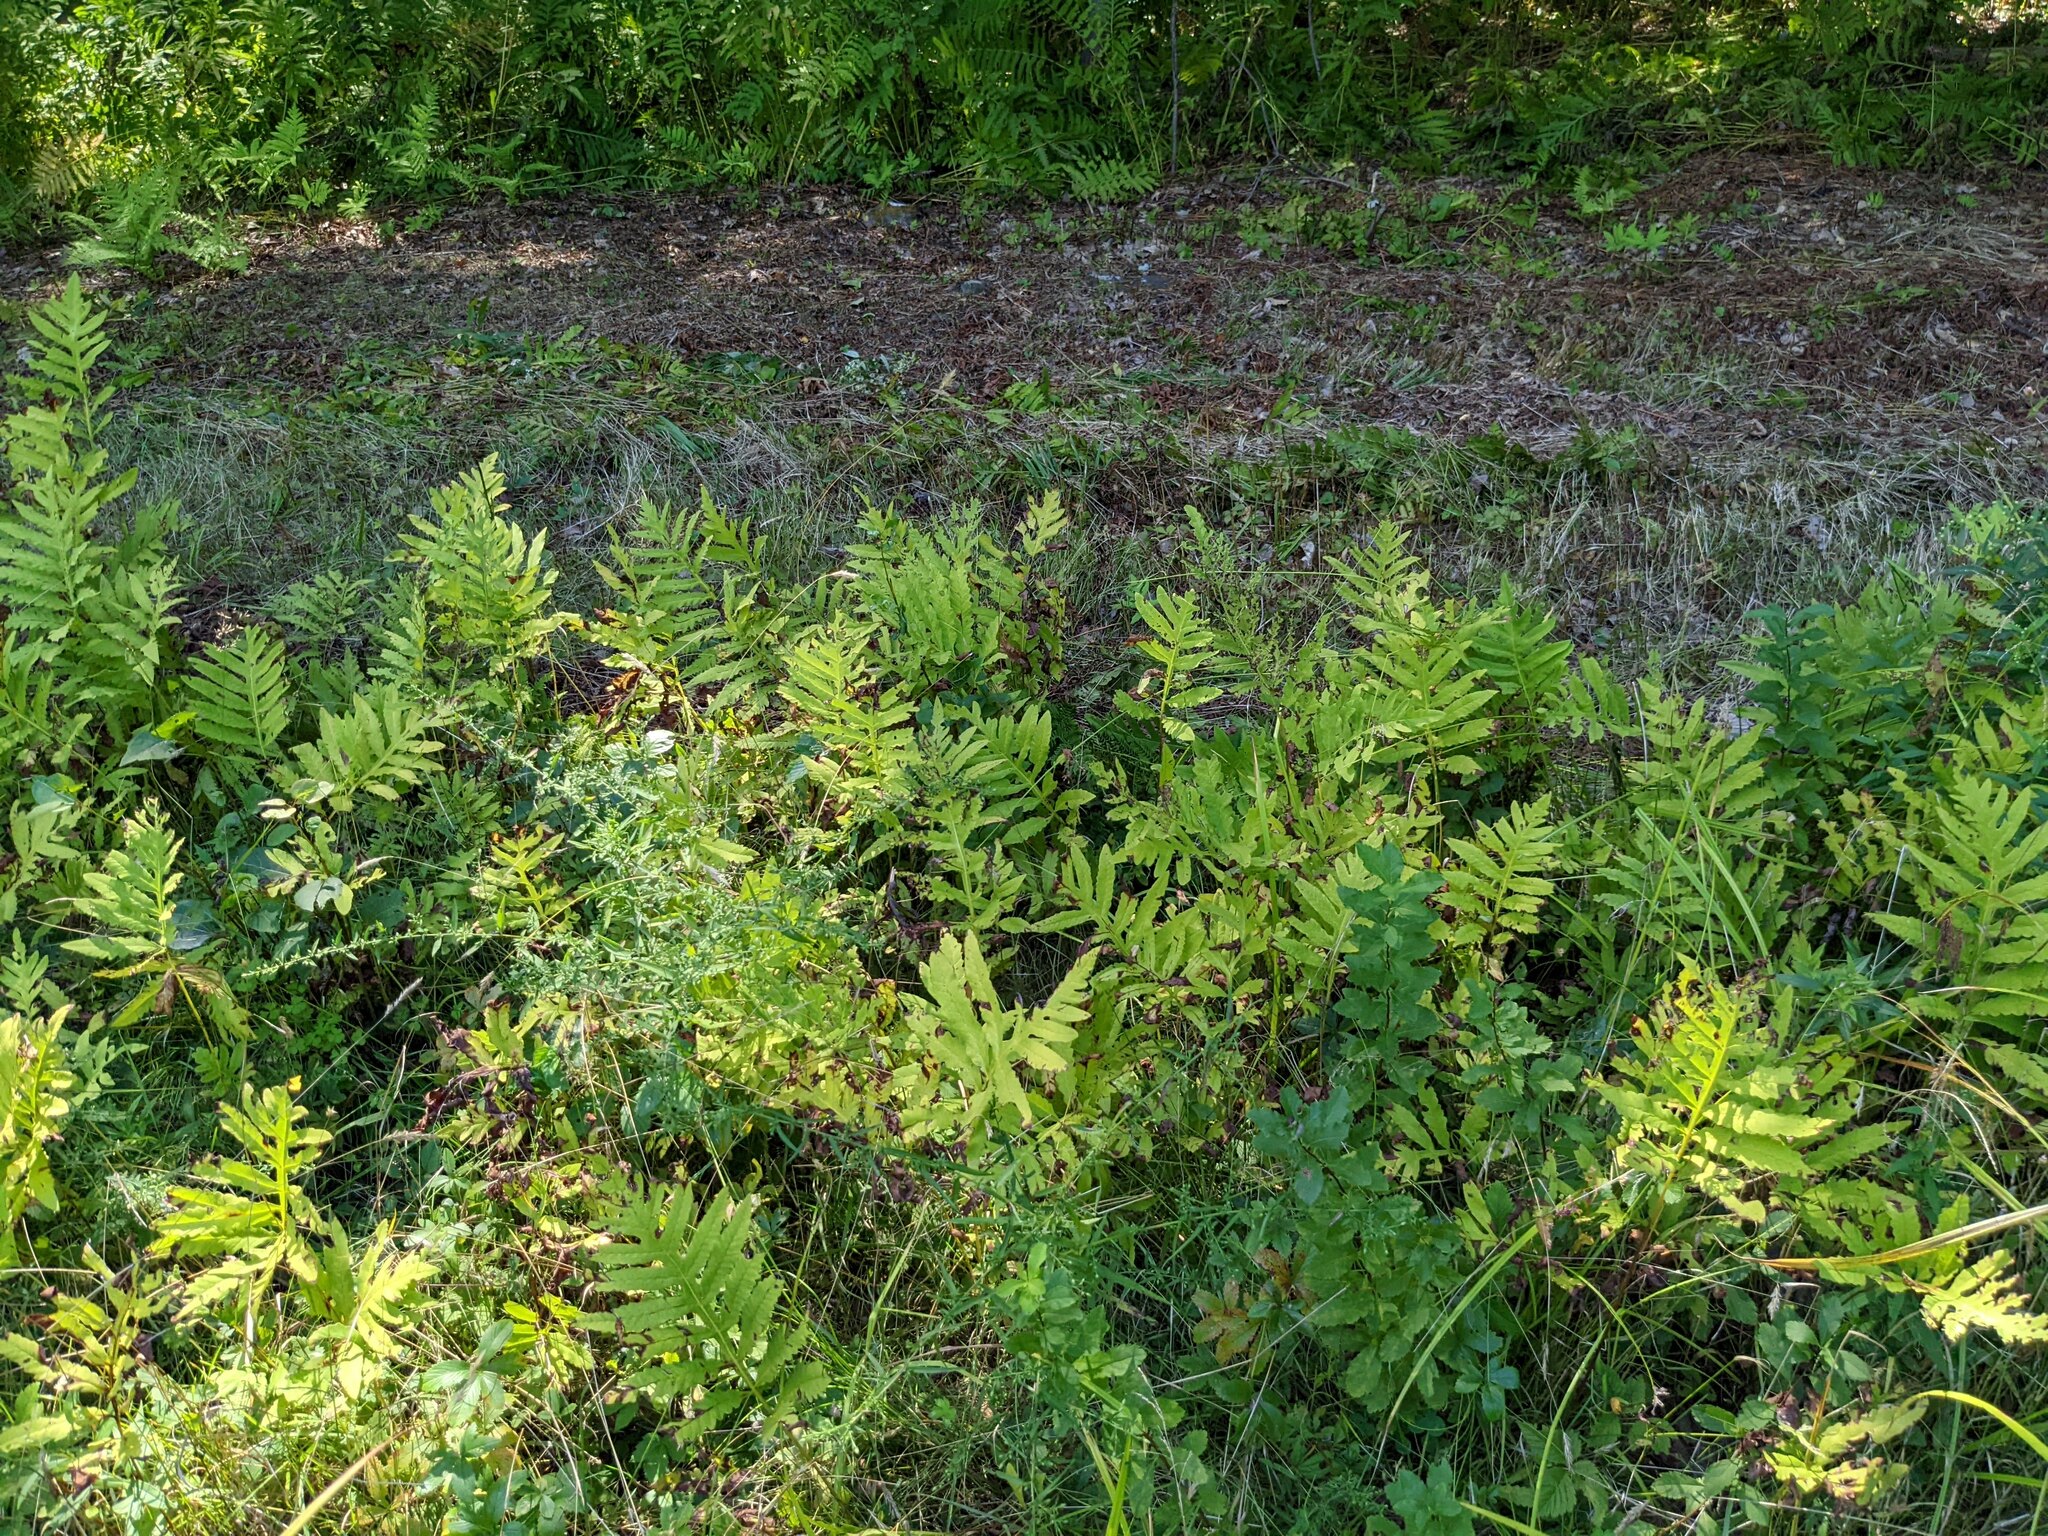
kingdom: Plantae
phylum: Tracheophyta
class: Polypodiopsida
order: Polypodiales
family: Onocleaceae
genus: Onoclea
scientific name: Onoclea sensibilis
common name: Sensitive fern
